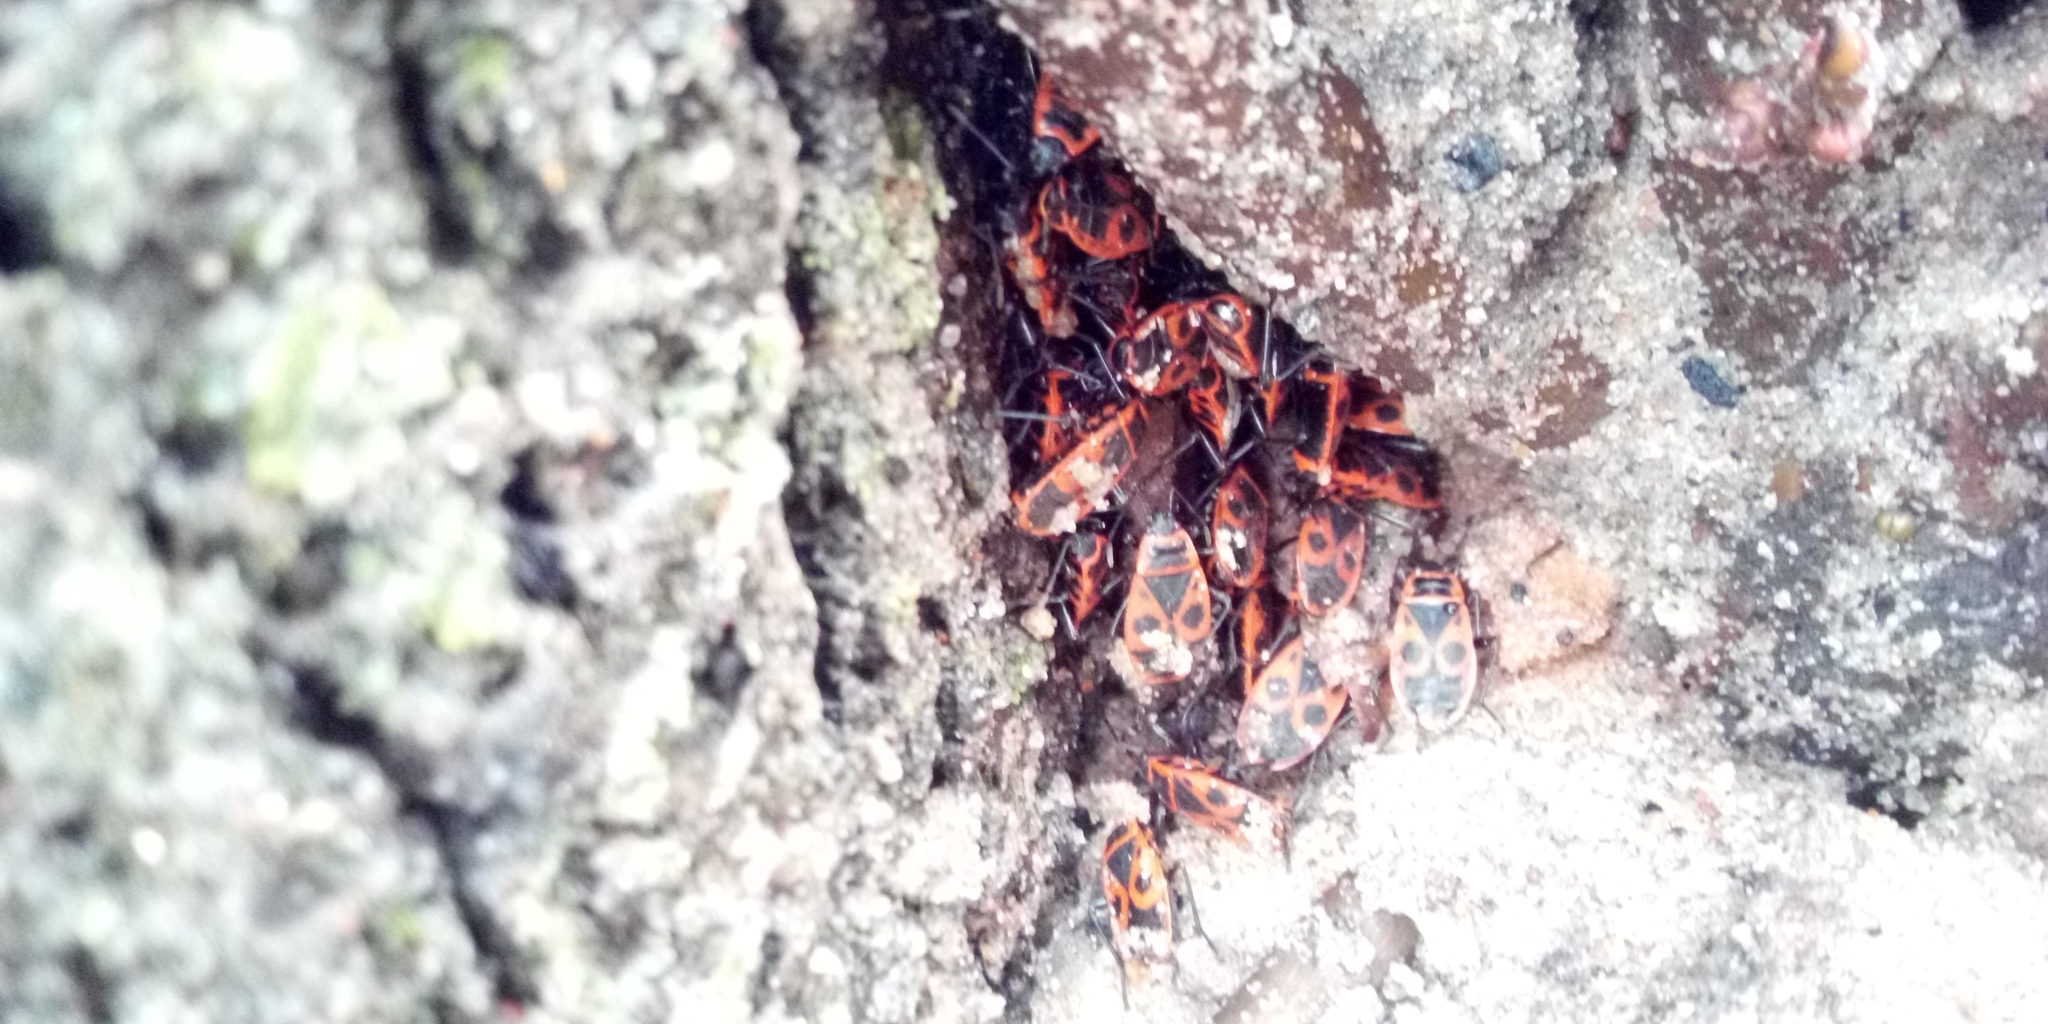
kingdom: Animalia
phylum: Arthropoda
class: Insecta
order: Hemiptera
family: Pyrrhocoridae
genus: Pyrrhocoris
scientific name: Pyrrhocoris apterus
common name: Firebug
